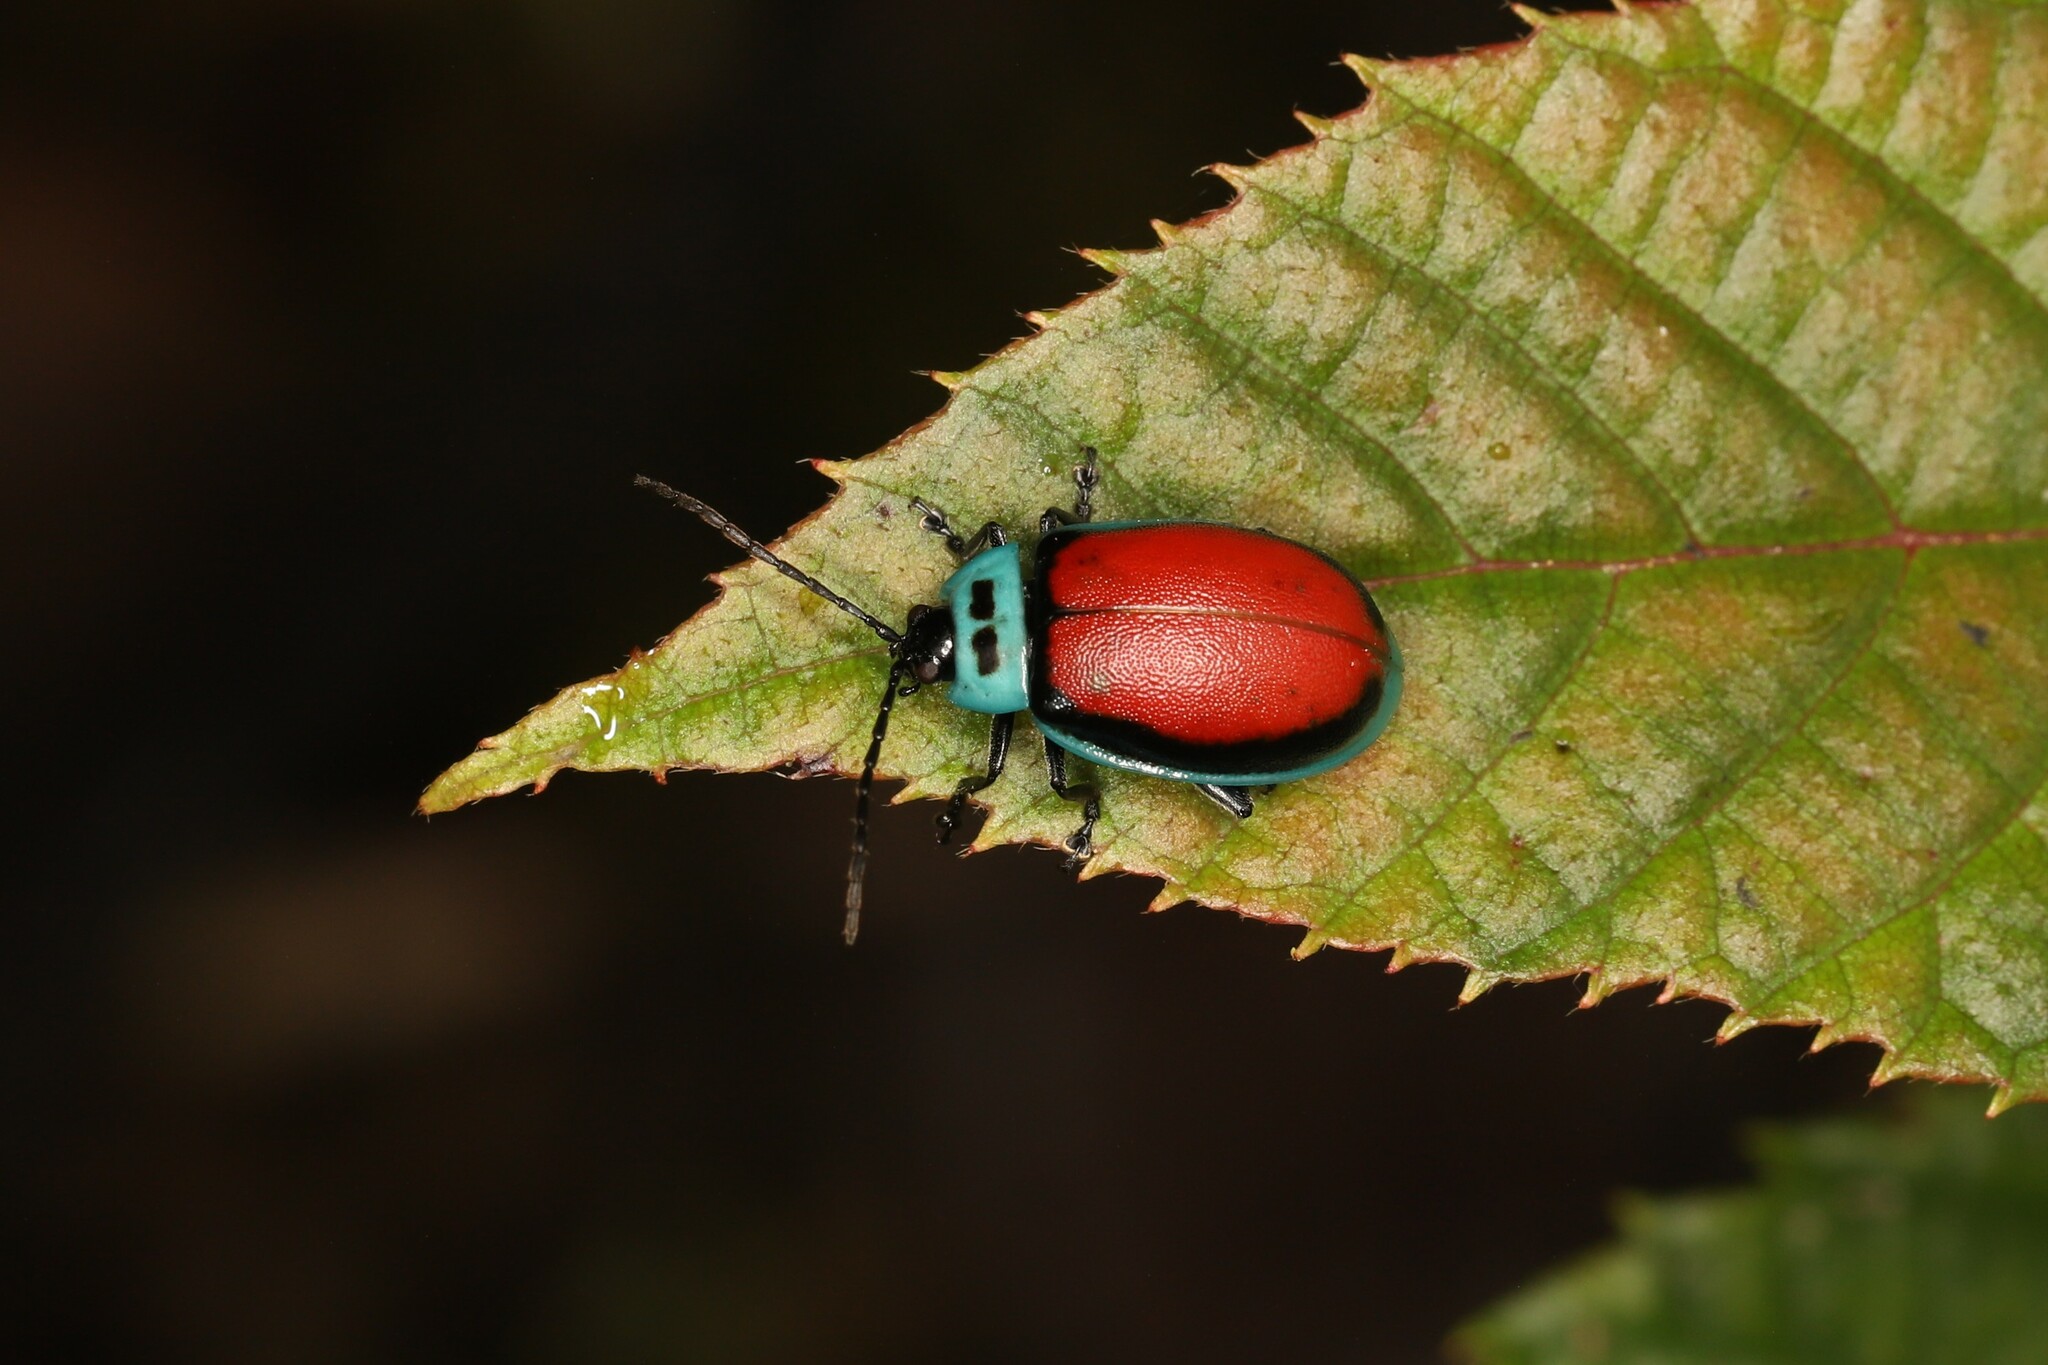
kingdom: Animalia
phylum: Arthropoda
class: Insecta
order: Coleoptera
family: Chrysomelidae
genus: Aspicela
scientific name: Aspicela
